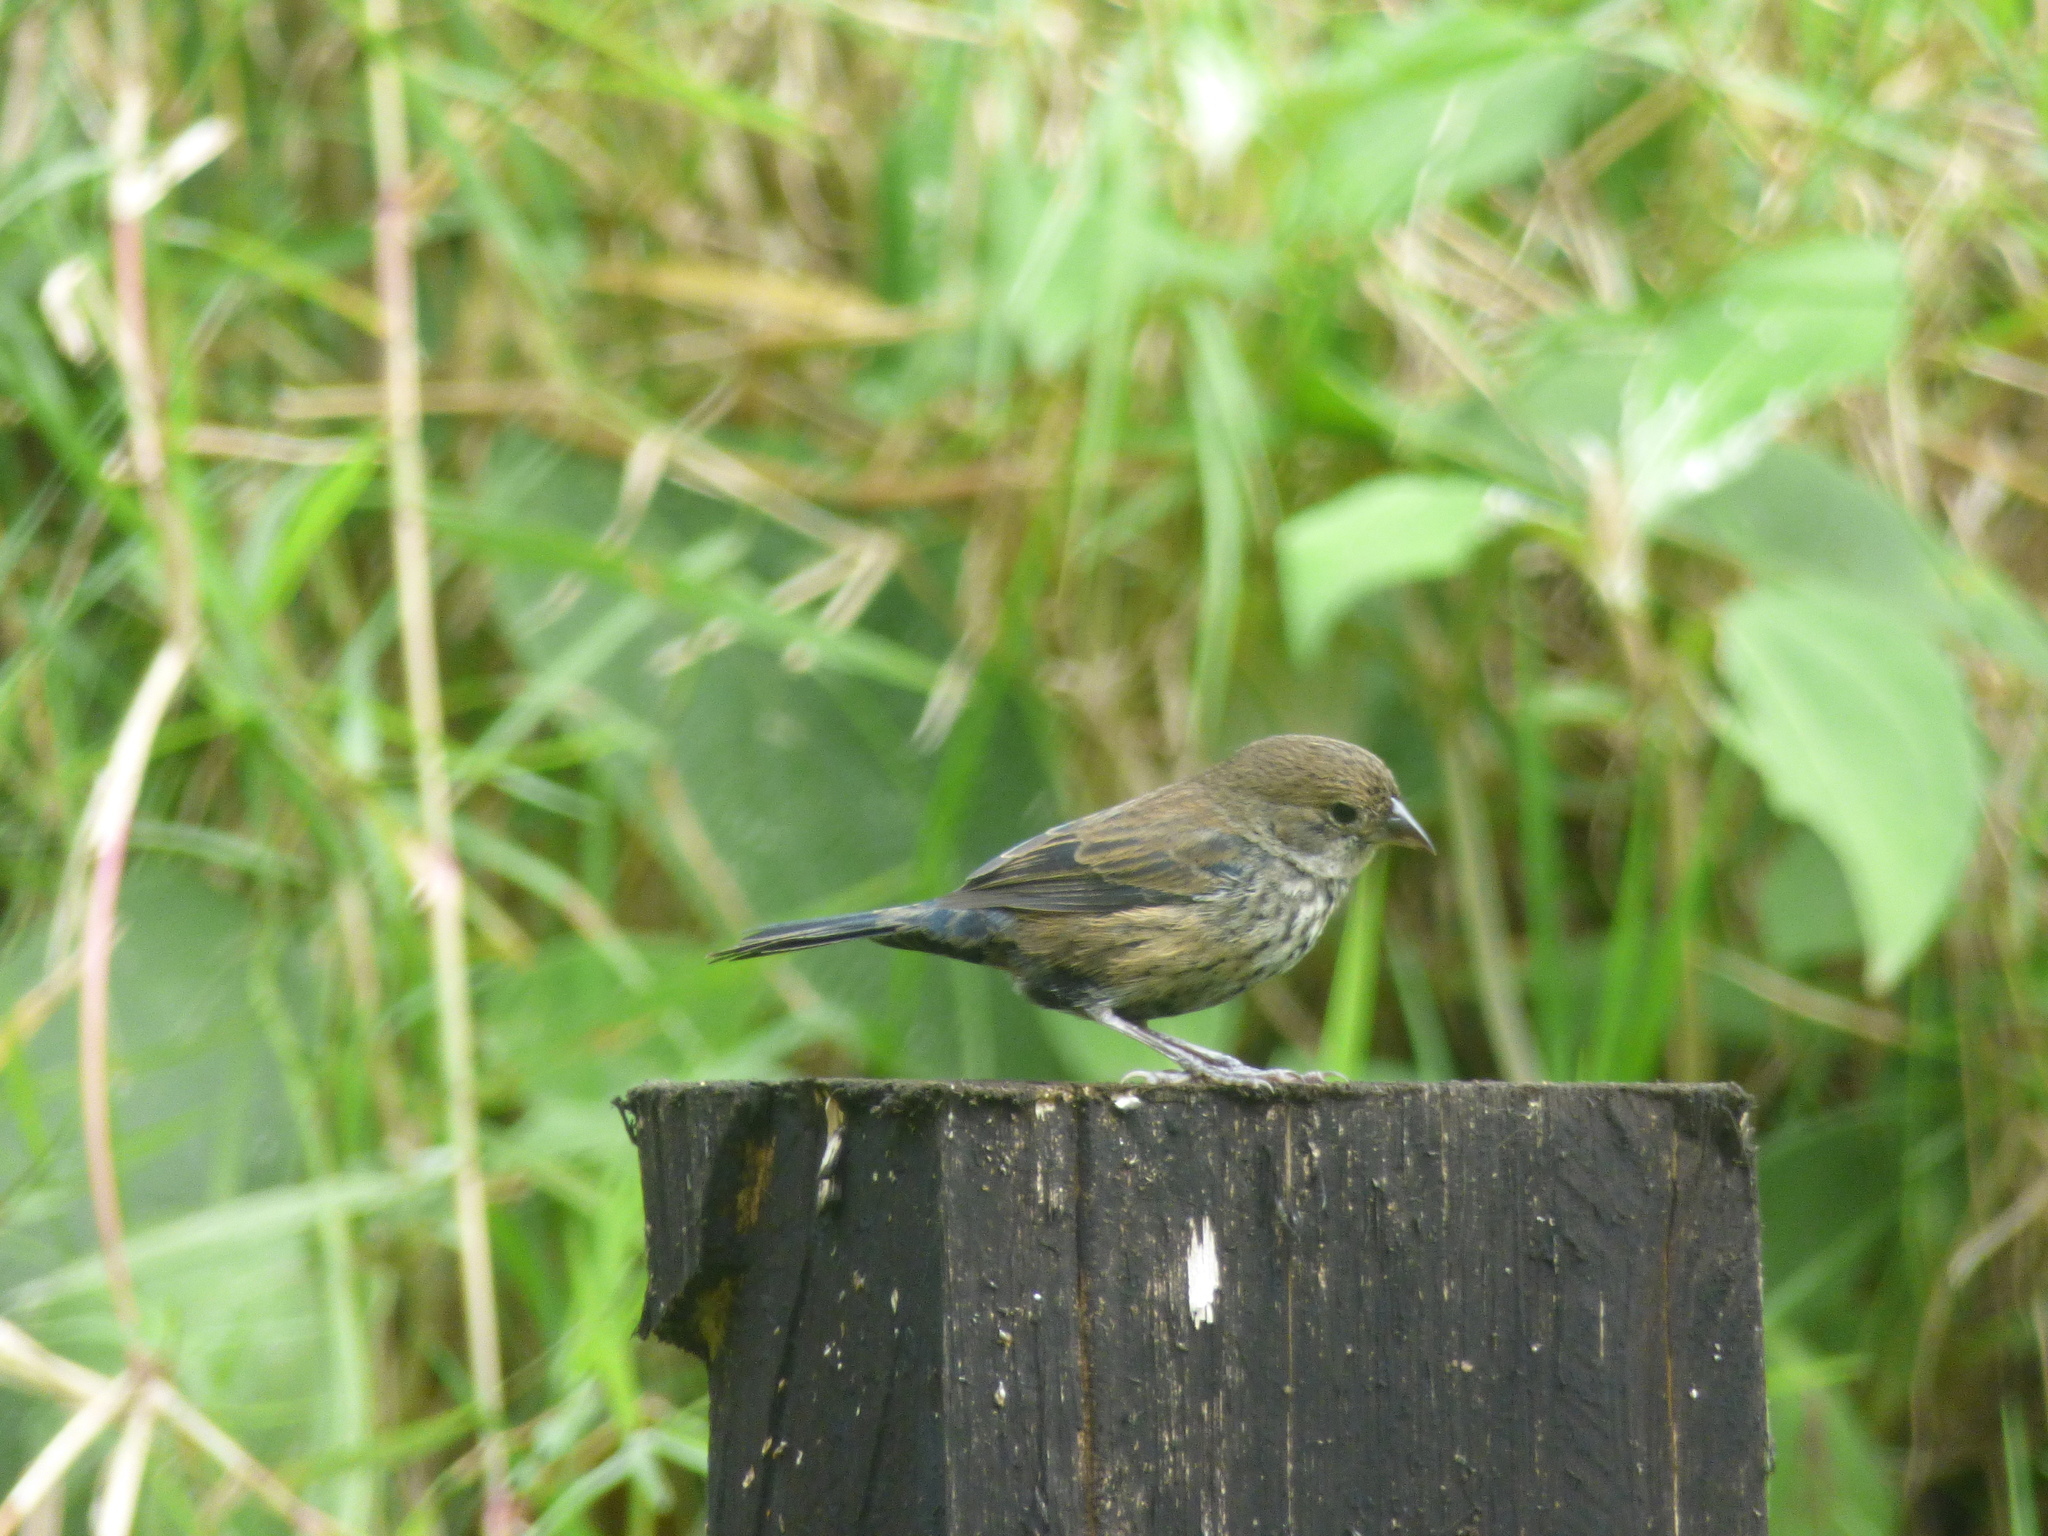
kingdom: Animalia
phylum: Chordata
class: Aves
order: Passeriformes
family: Thraupidae
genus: Volatinia
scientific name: Volatinia jacarina
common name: Blue-black grassquit
